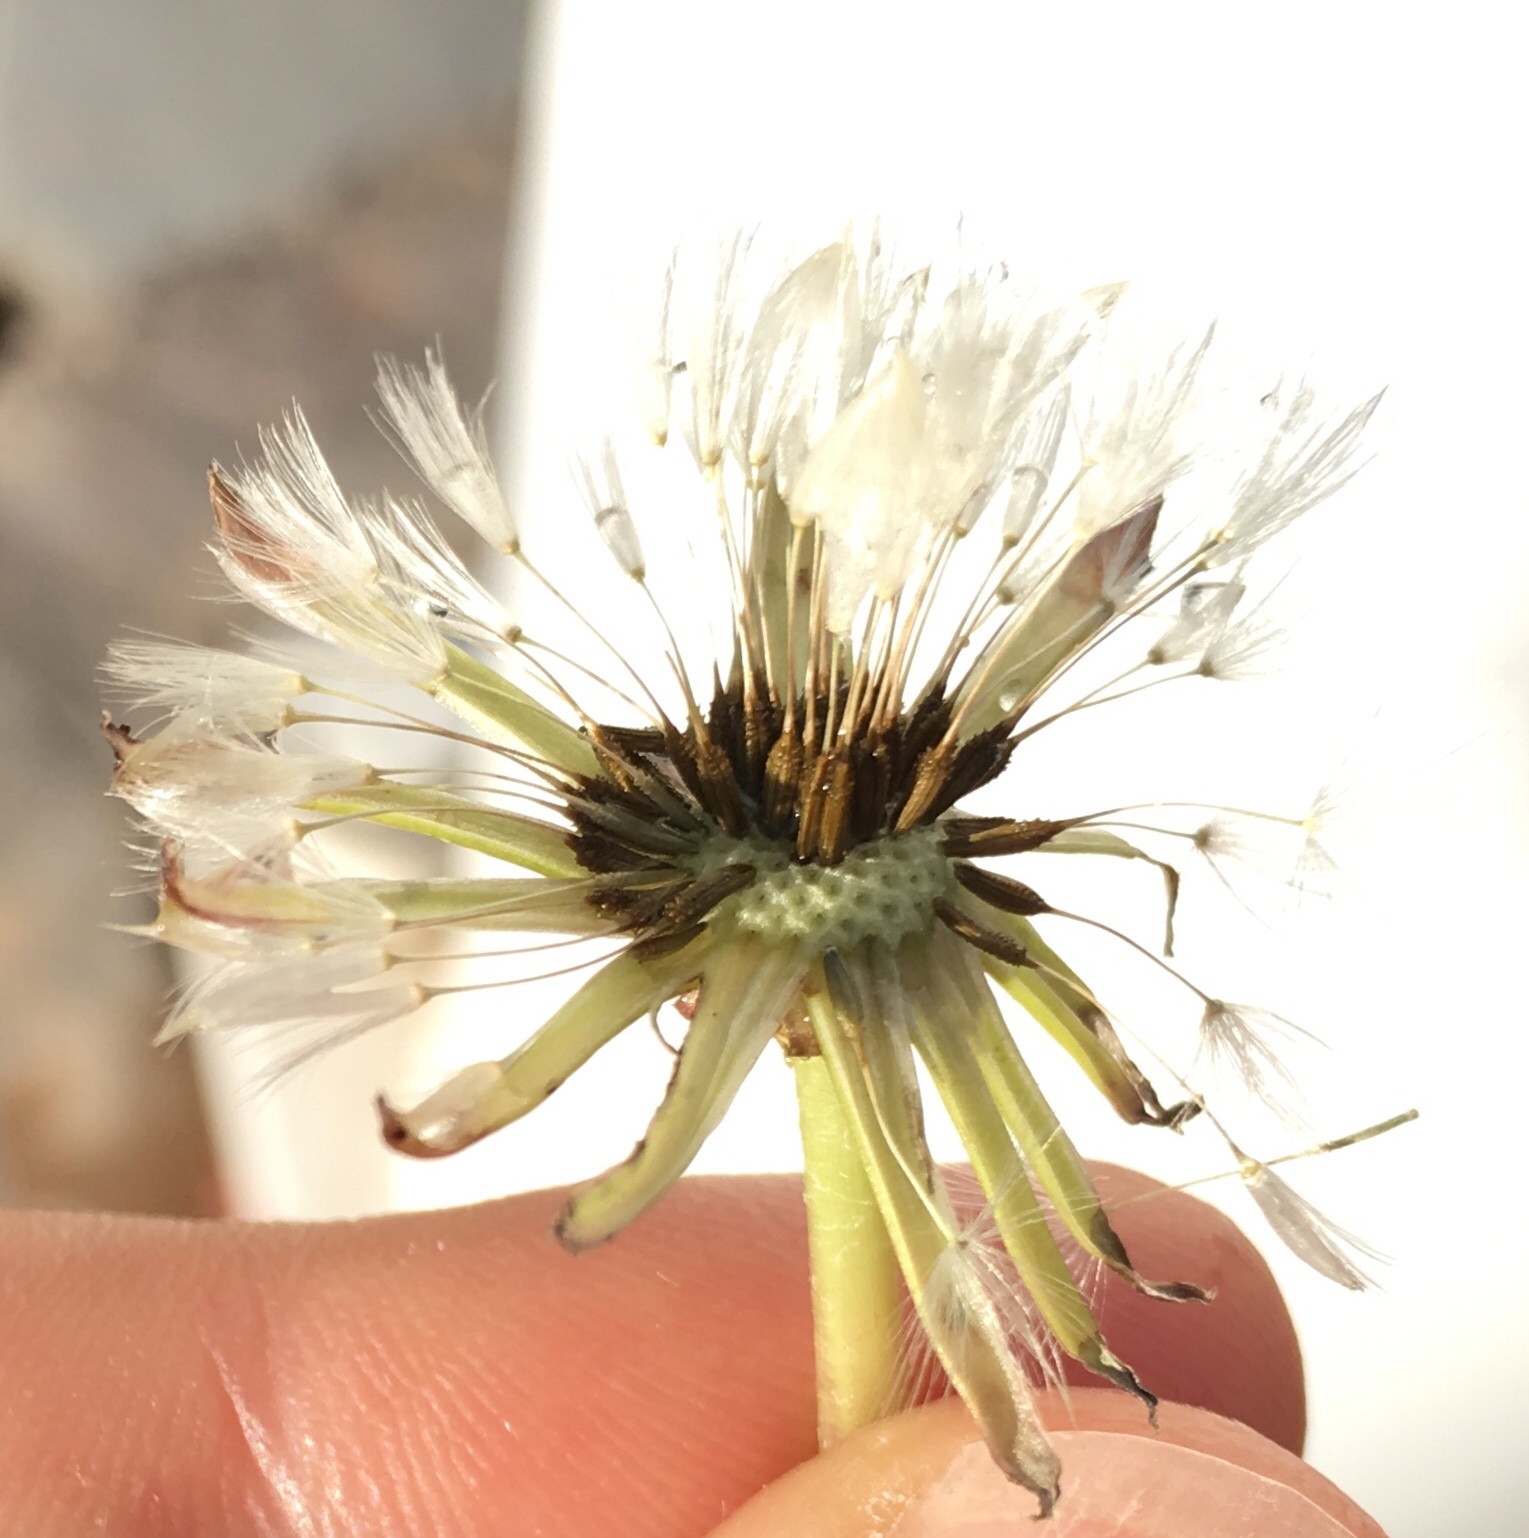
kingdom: Plantae
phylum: Tracheophyta
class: Magnoliopsida
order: Asterales
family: Asteraceae
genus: Taraxacum
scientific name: Taraxacum officinale
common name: Common dandelion
